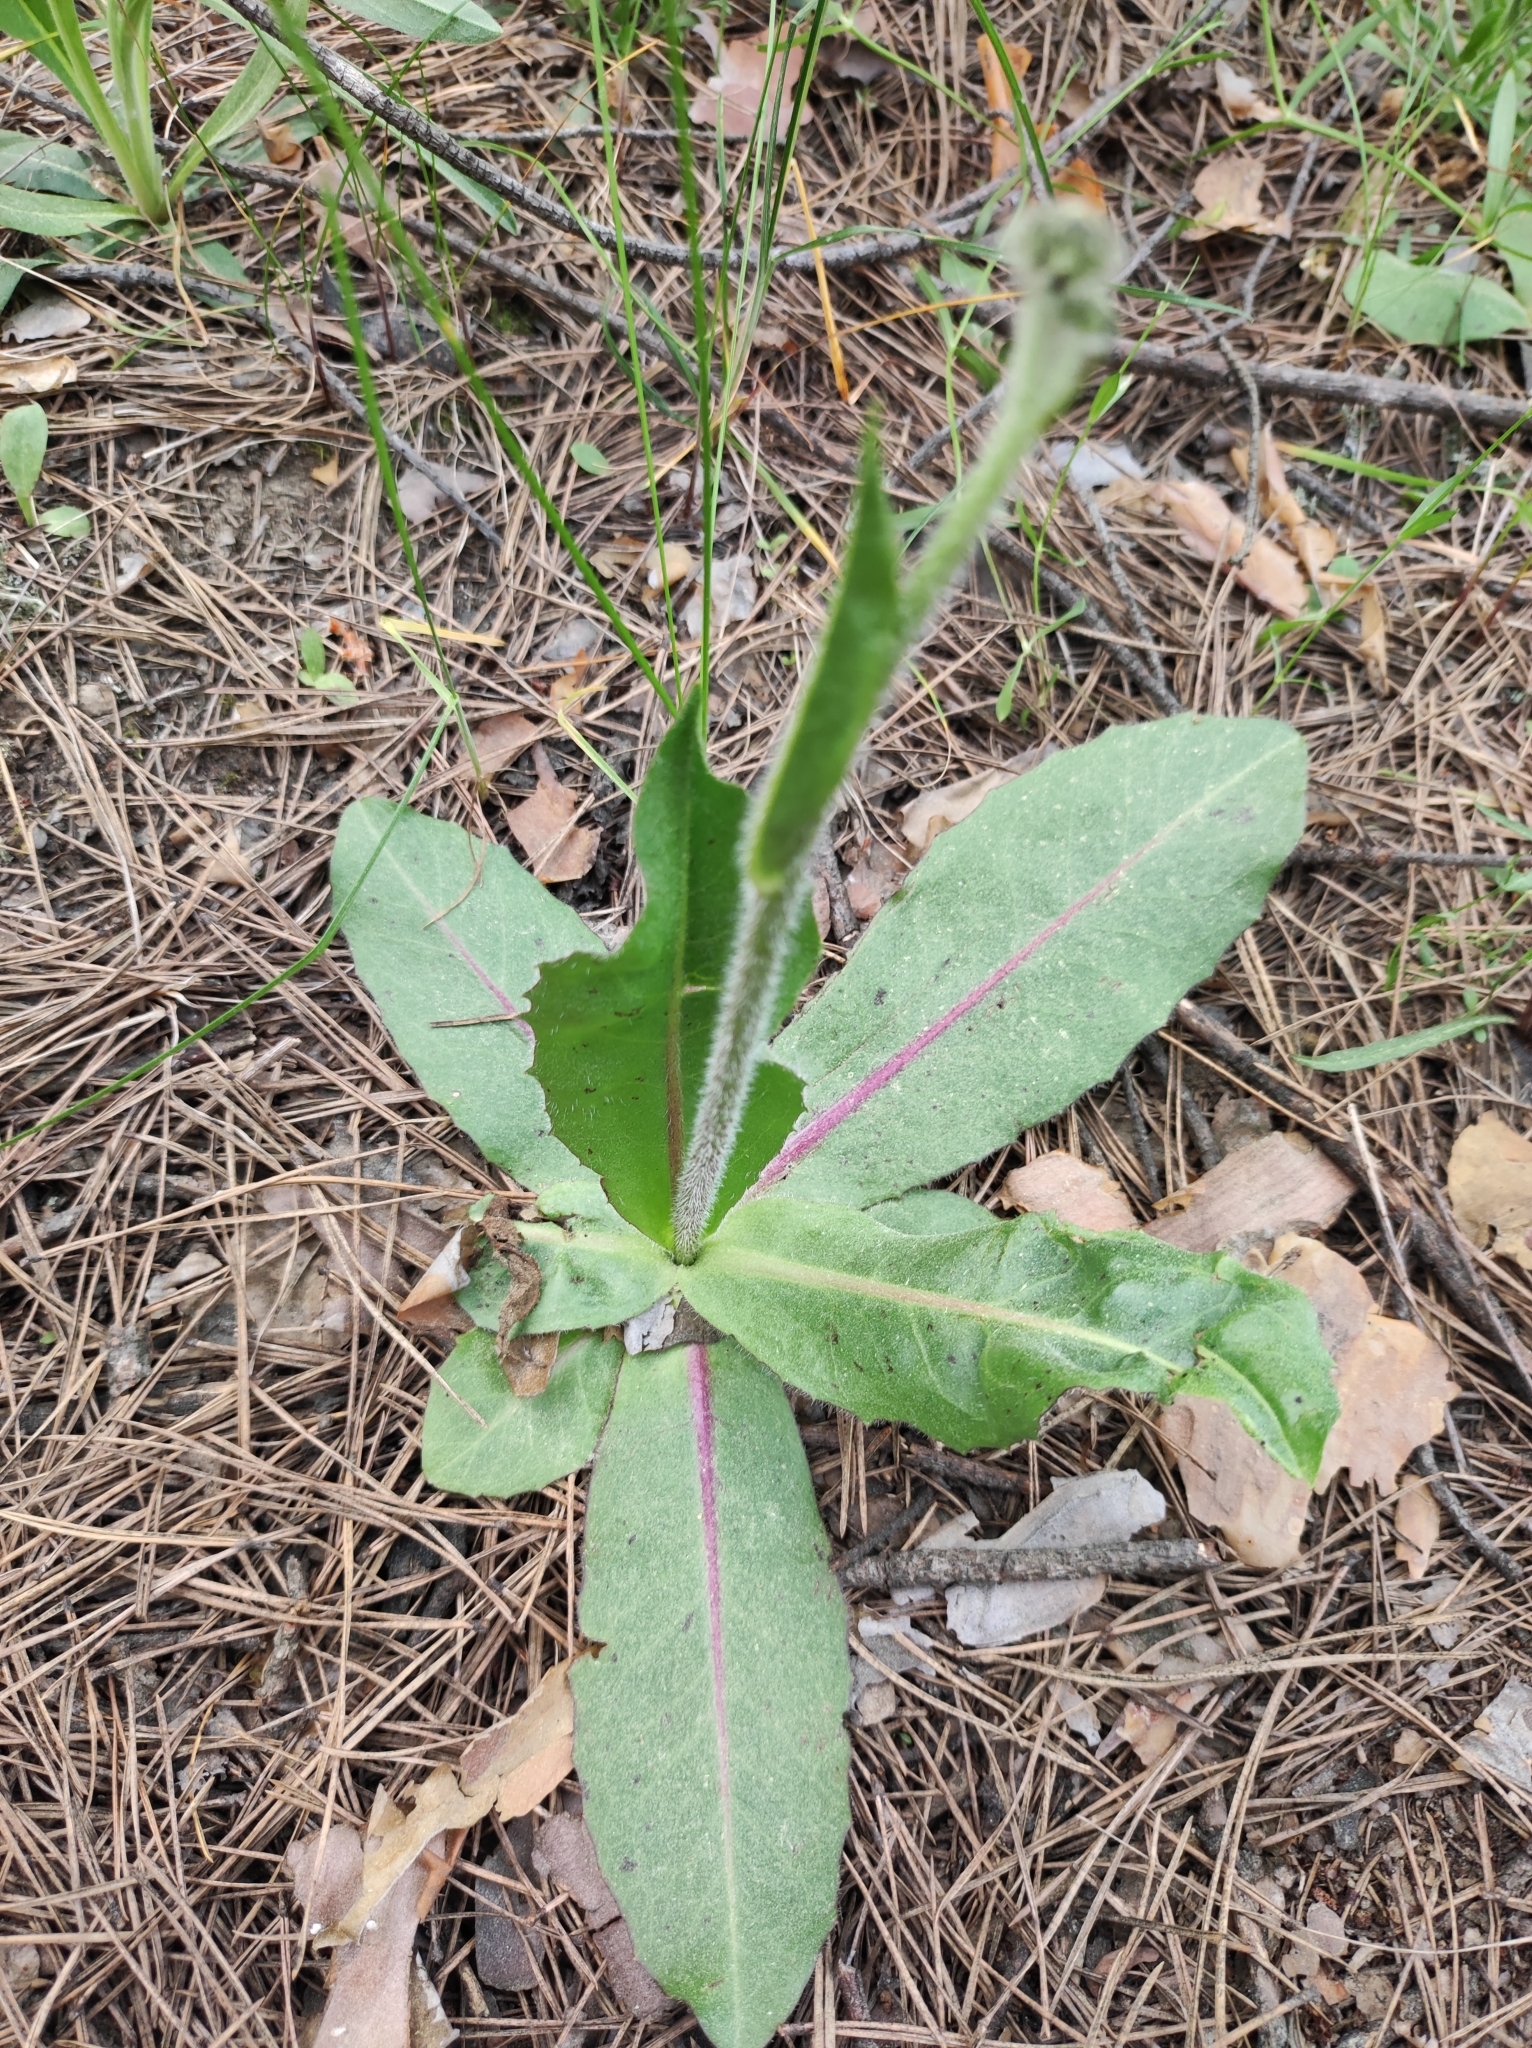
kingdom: Plantae
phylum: Tracheophyta
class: Magnoliopsida
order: Asterales
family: Asteraceae
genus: Trommsdorffia
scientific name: Trommsdorffia maculata
